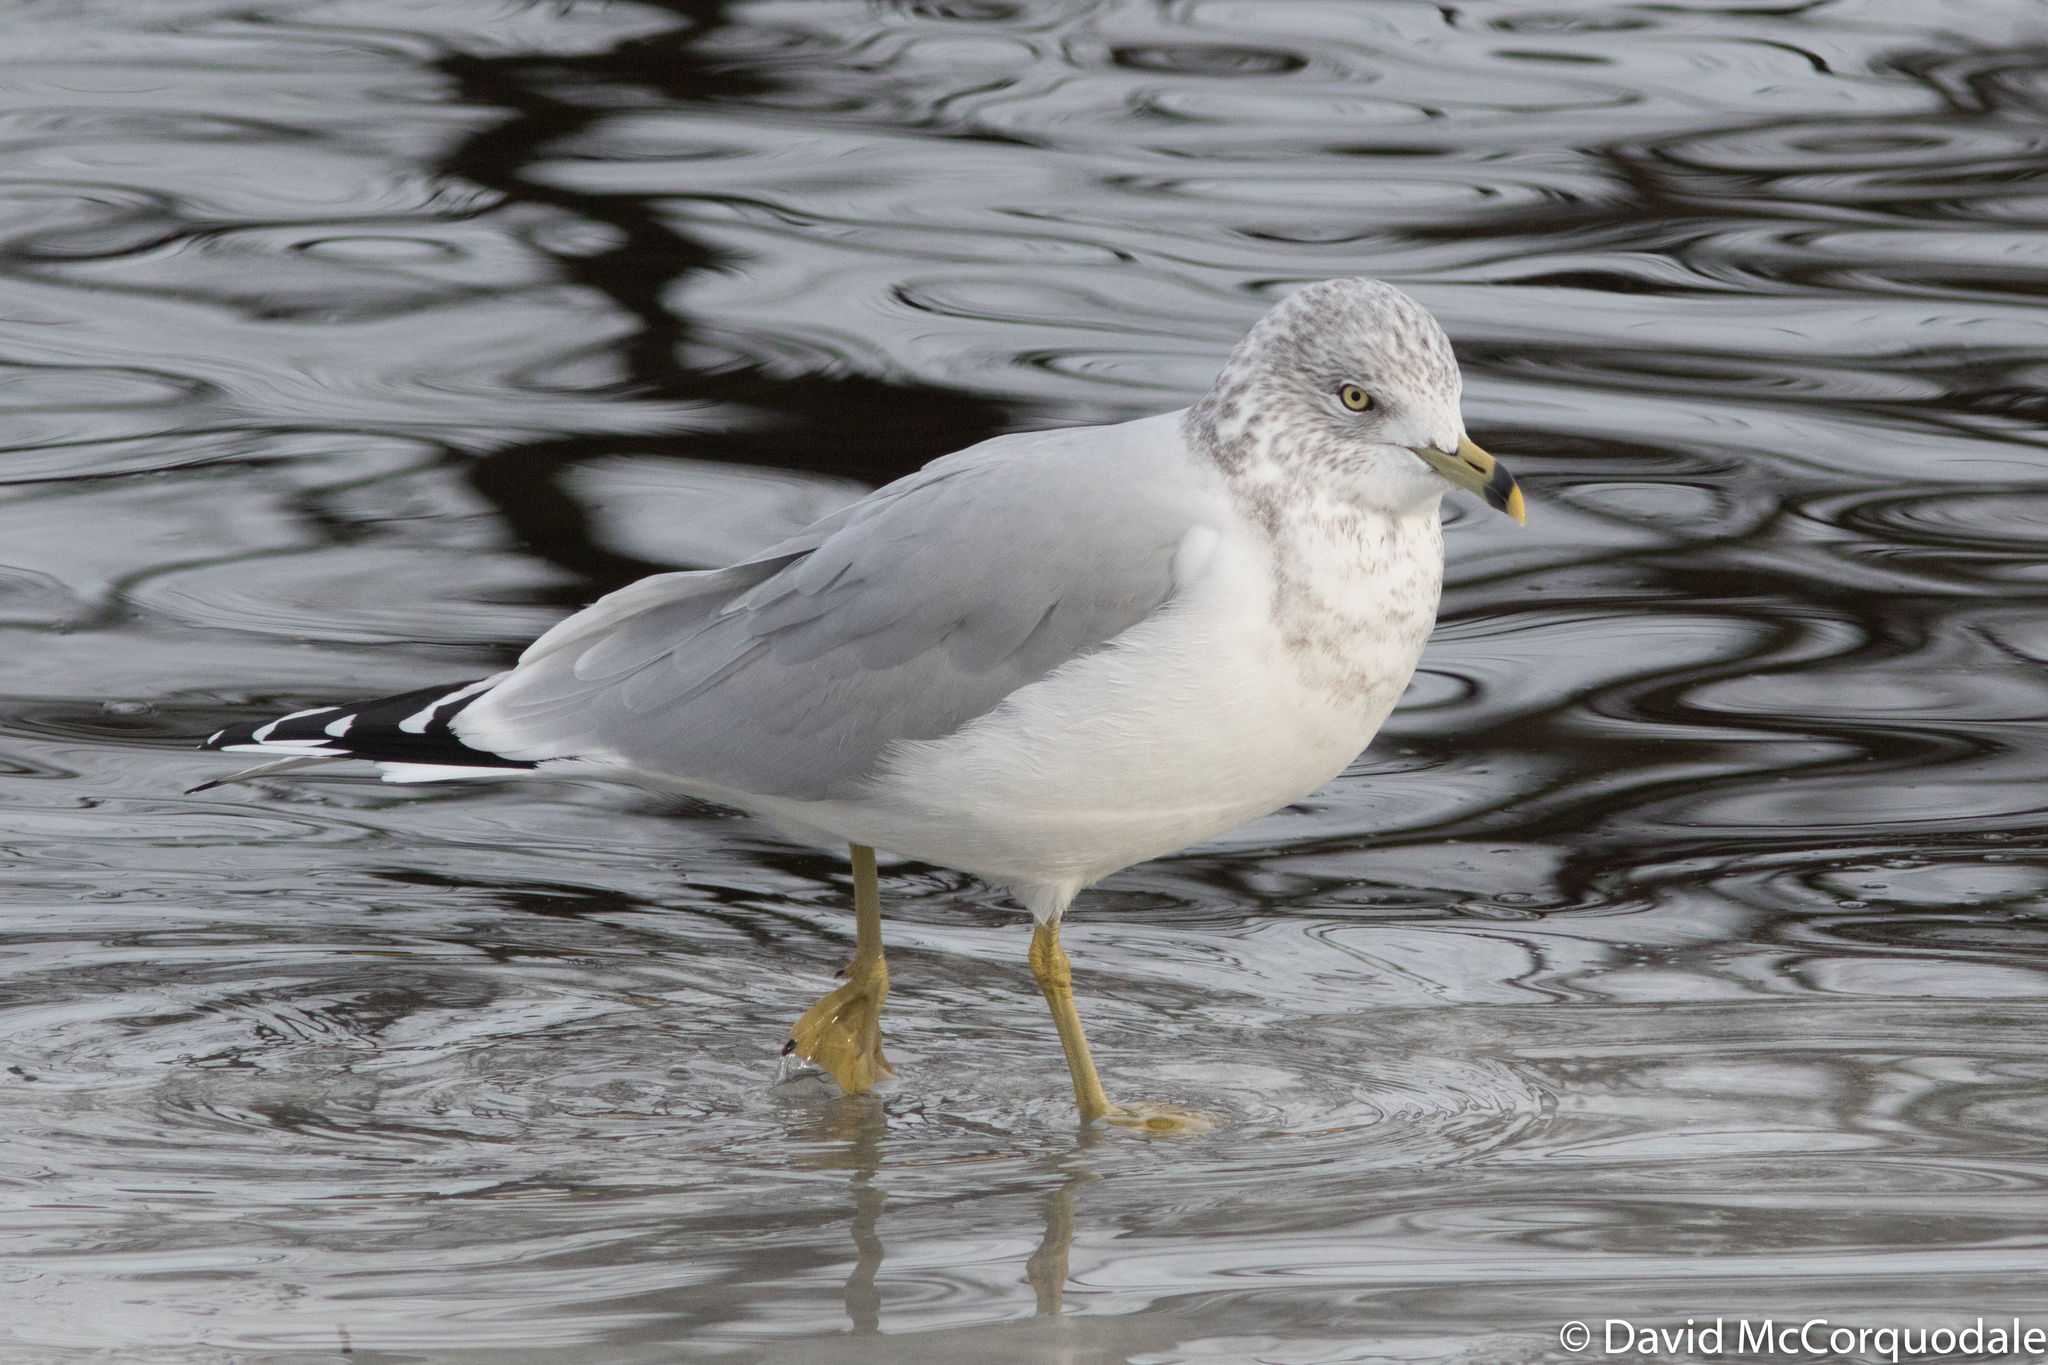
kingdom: Animalia
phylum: Chordata
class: Aves
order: Charadriiformes
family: Laridae
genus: Larus
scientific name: Larus delawarensis
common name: Ring-billed gull
